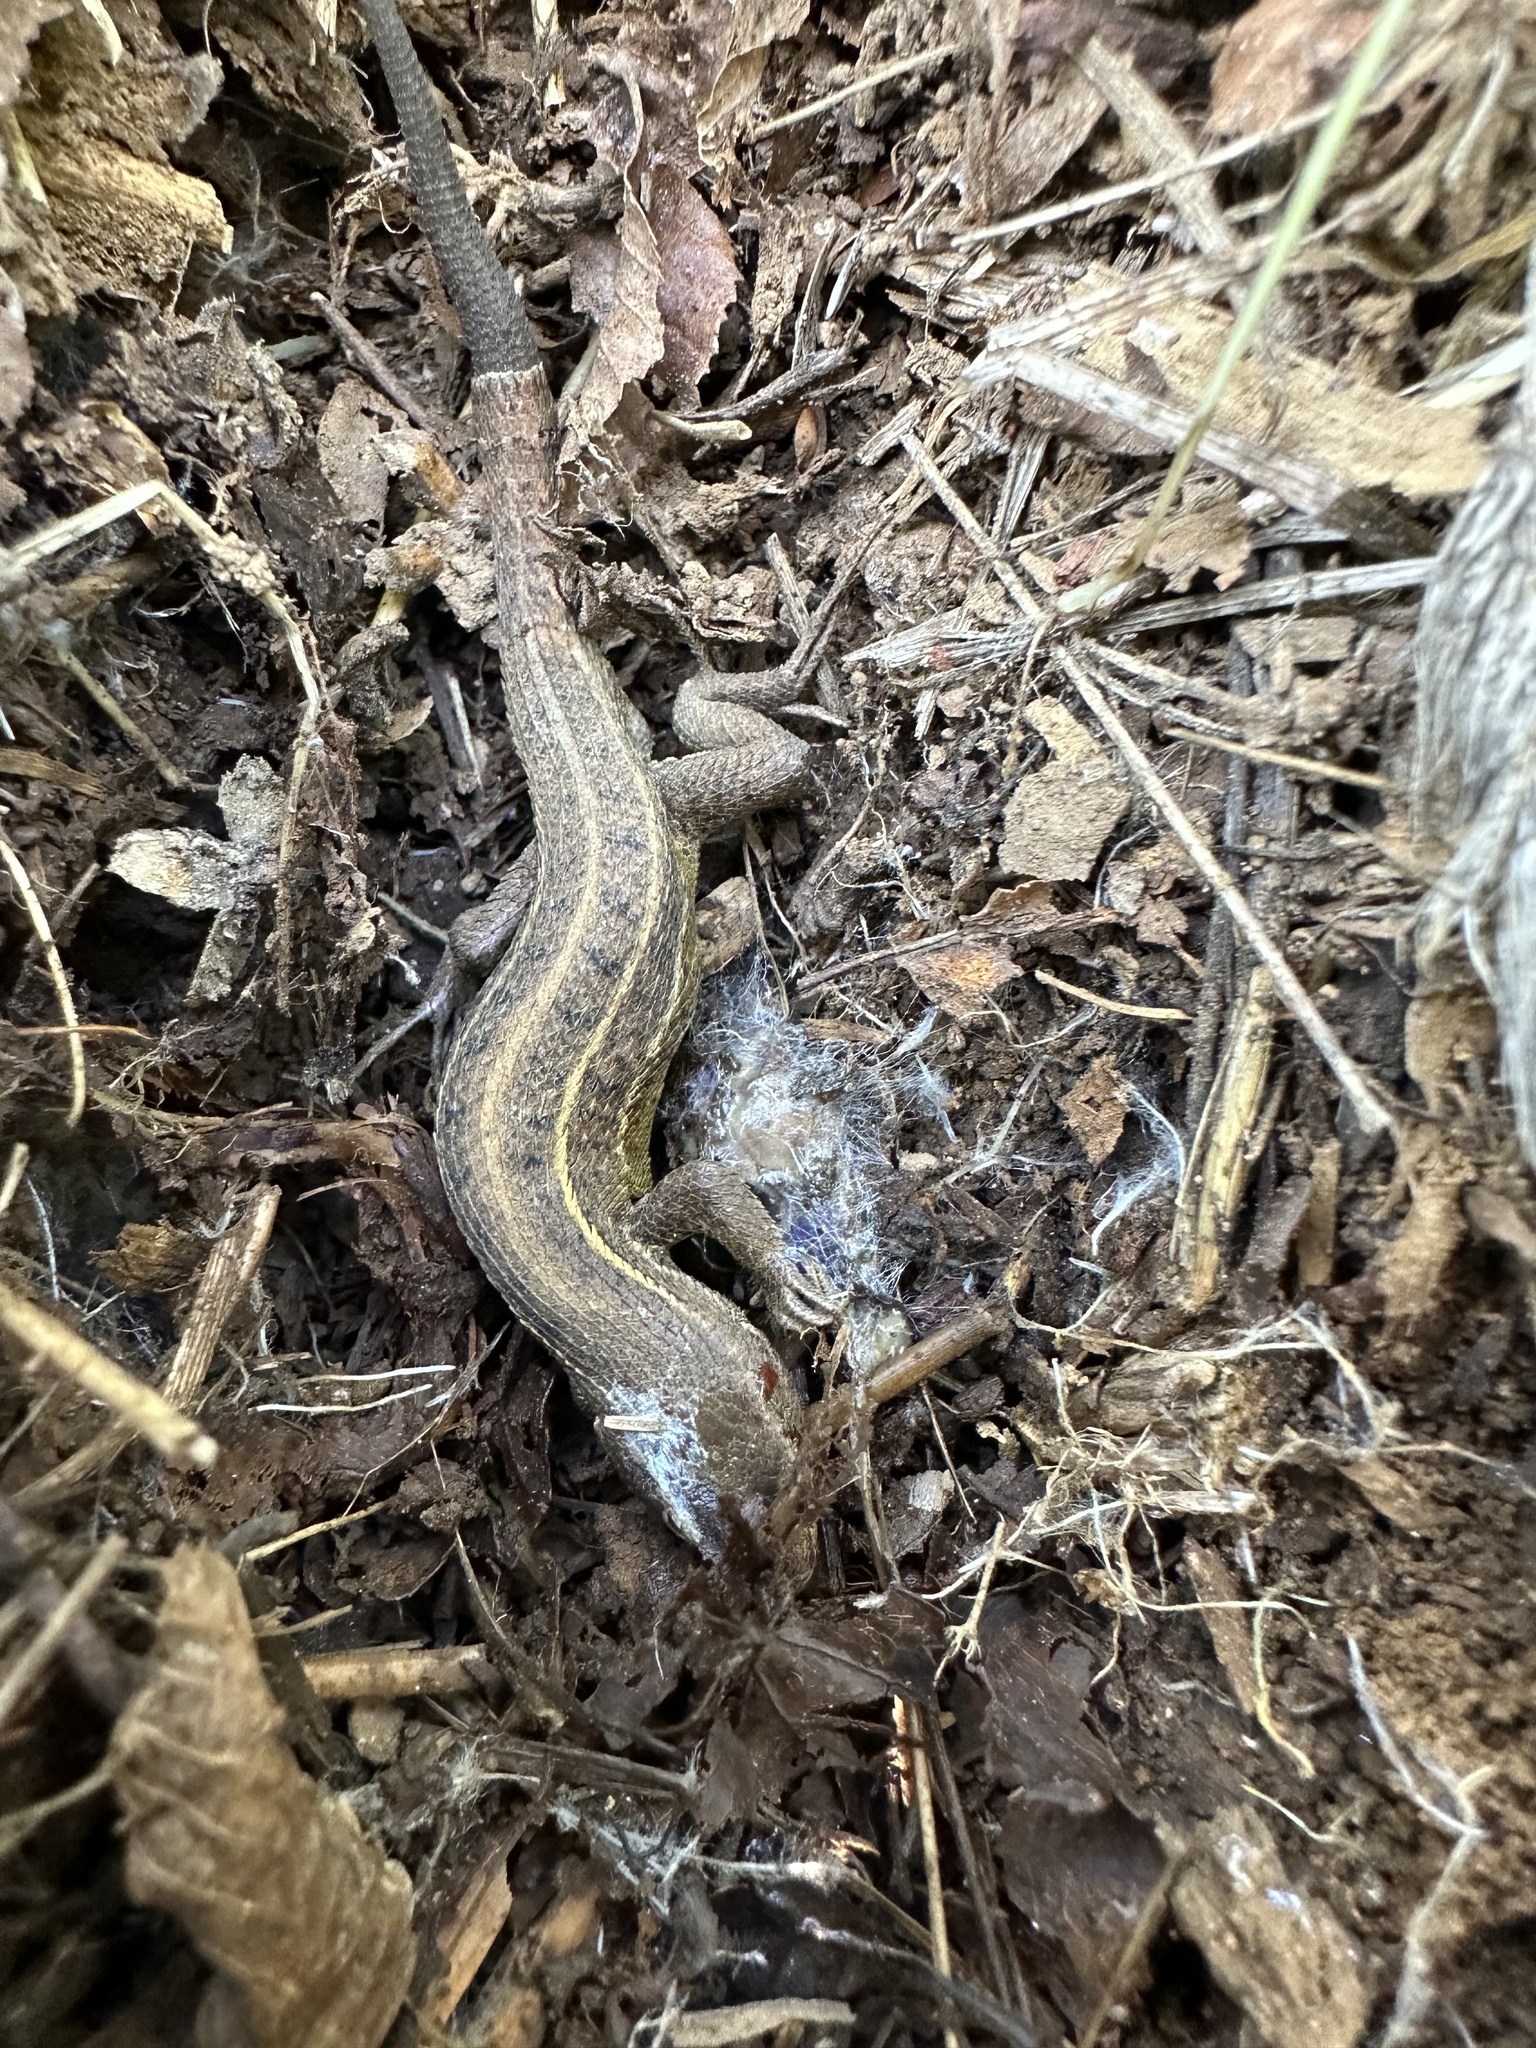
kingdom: Animalia
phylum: Chordata
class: Squamata
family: Liolaemidae
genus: Liolaemus
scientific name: Liolaemus lemniscatus
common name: Wreath tree iguana
